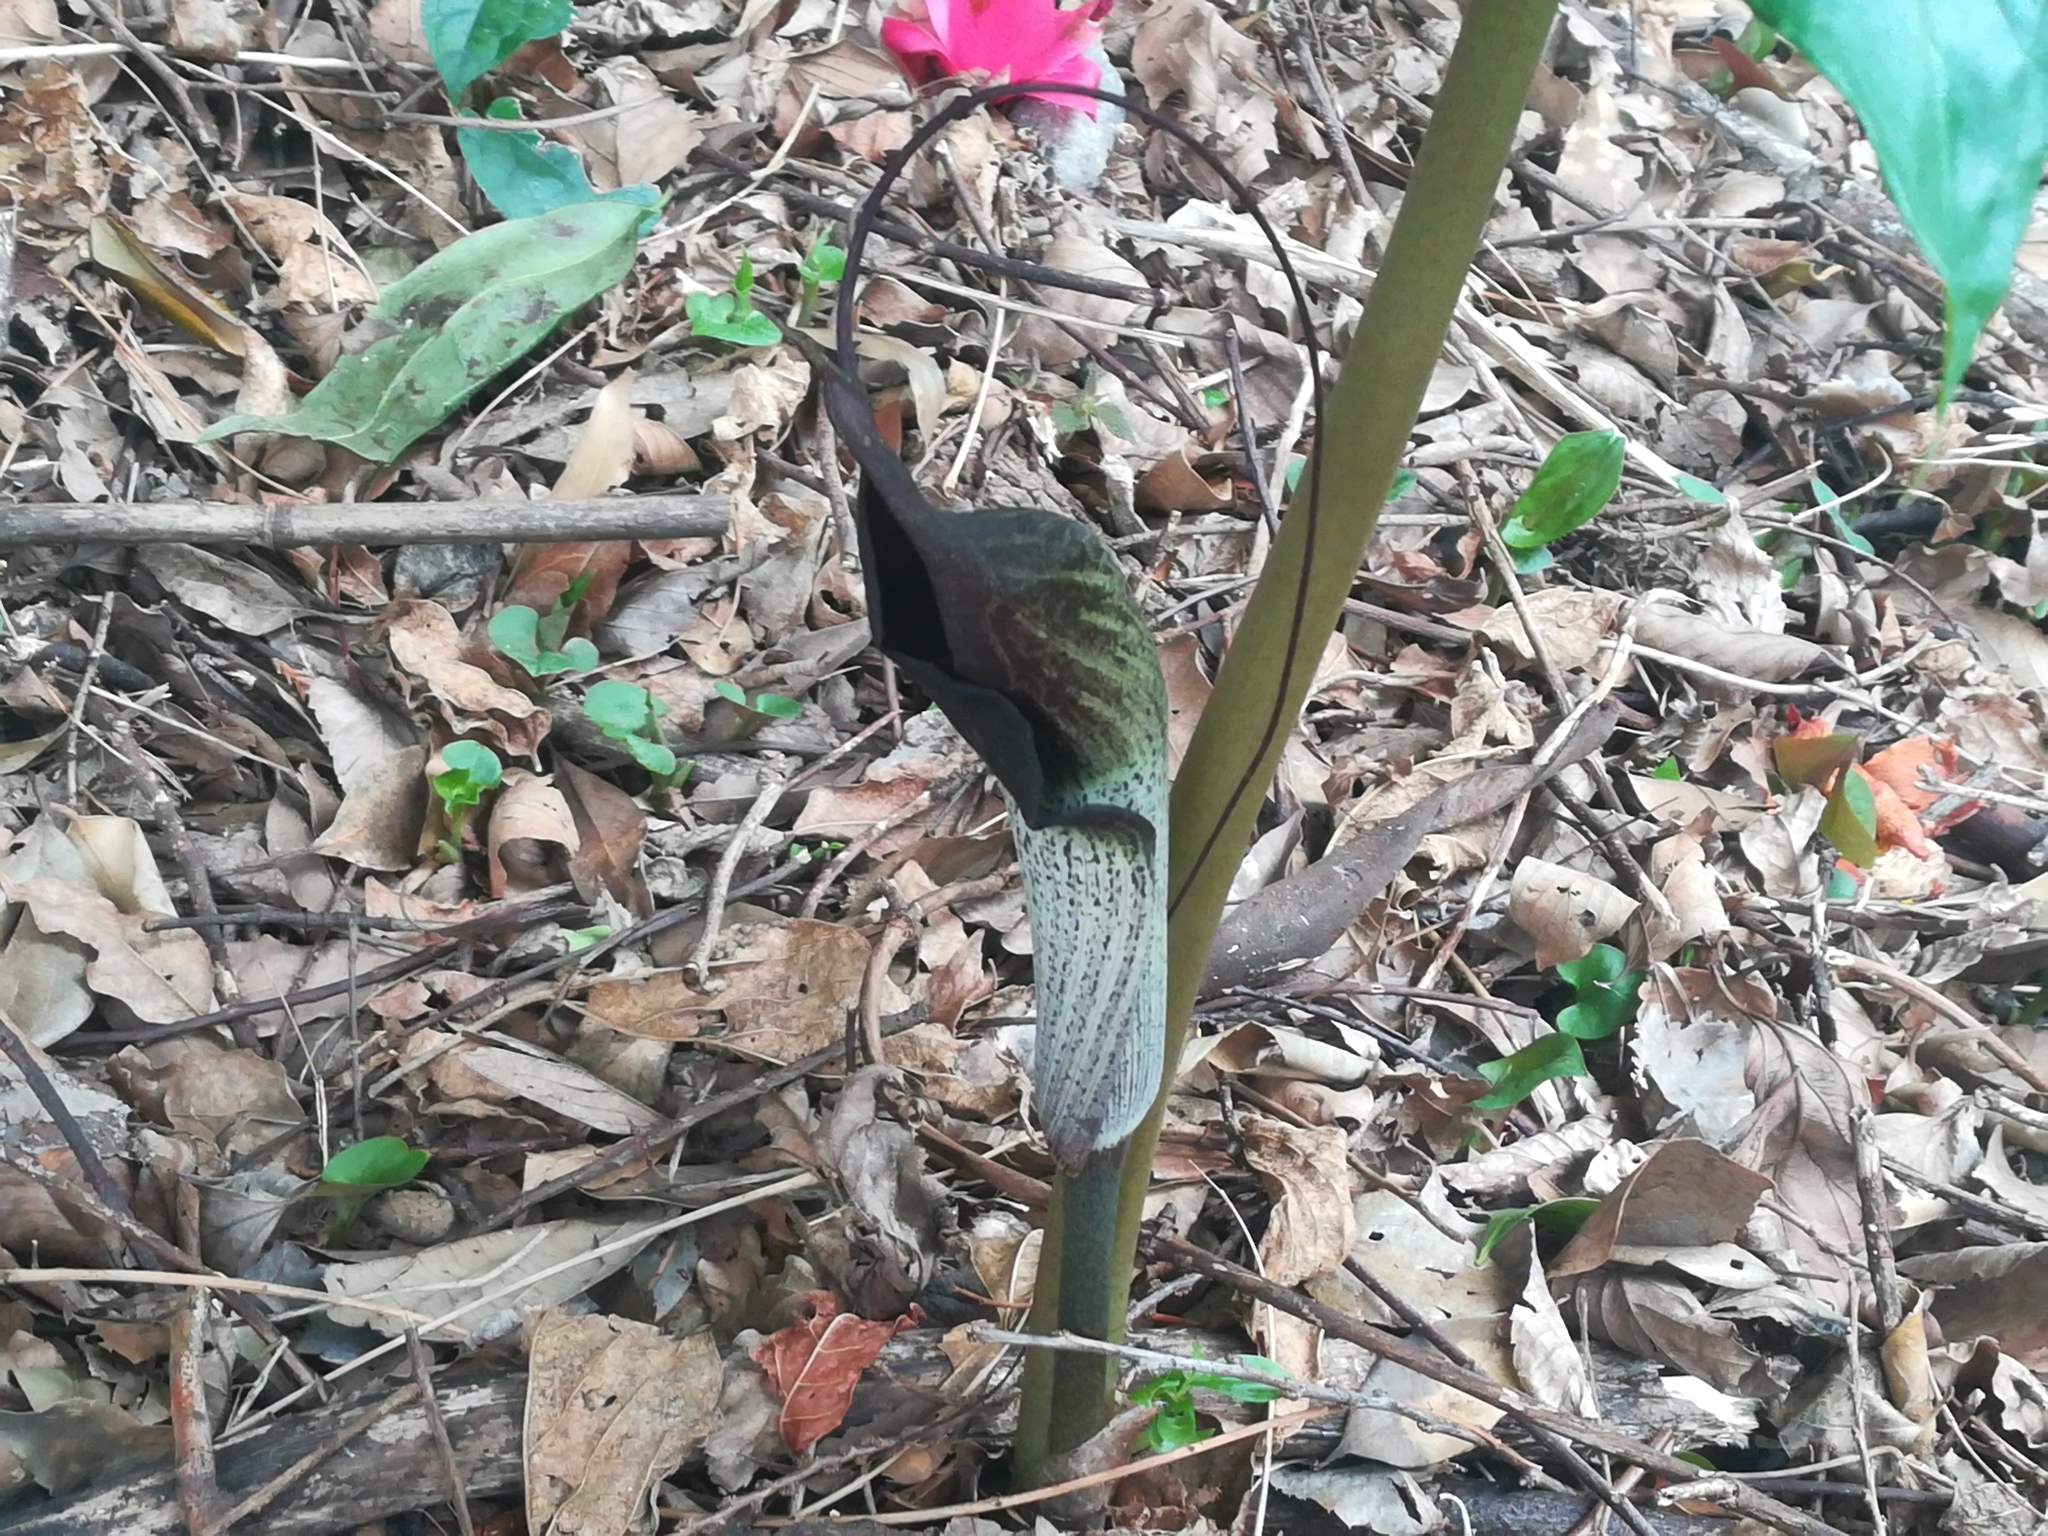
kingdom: Plantae
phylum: Tracheophyta
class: Liliopsida
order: Alismatales
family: Araceae
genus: Arisaema
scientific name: Arisaema thunbergii
